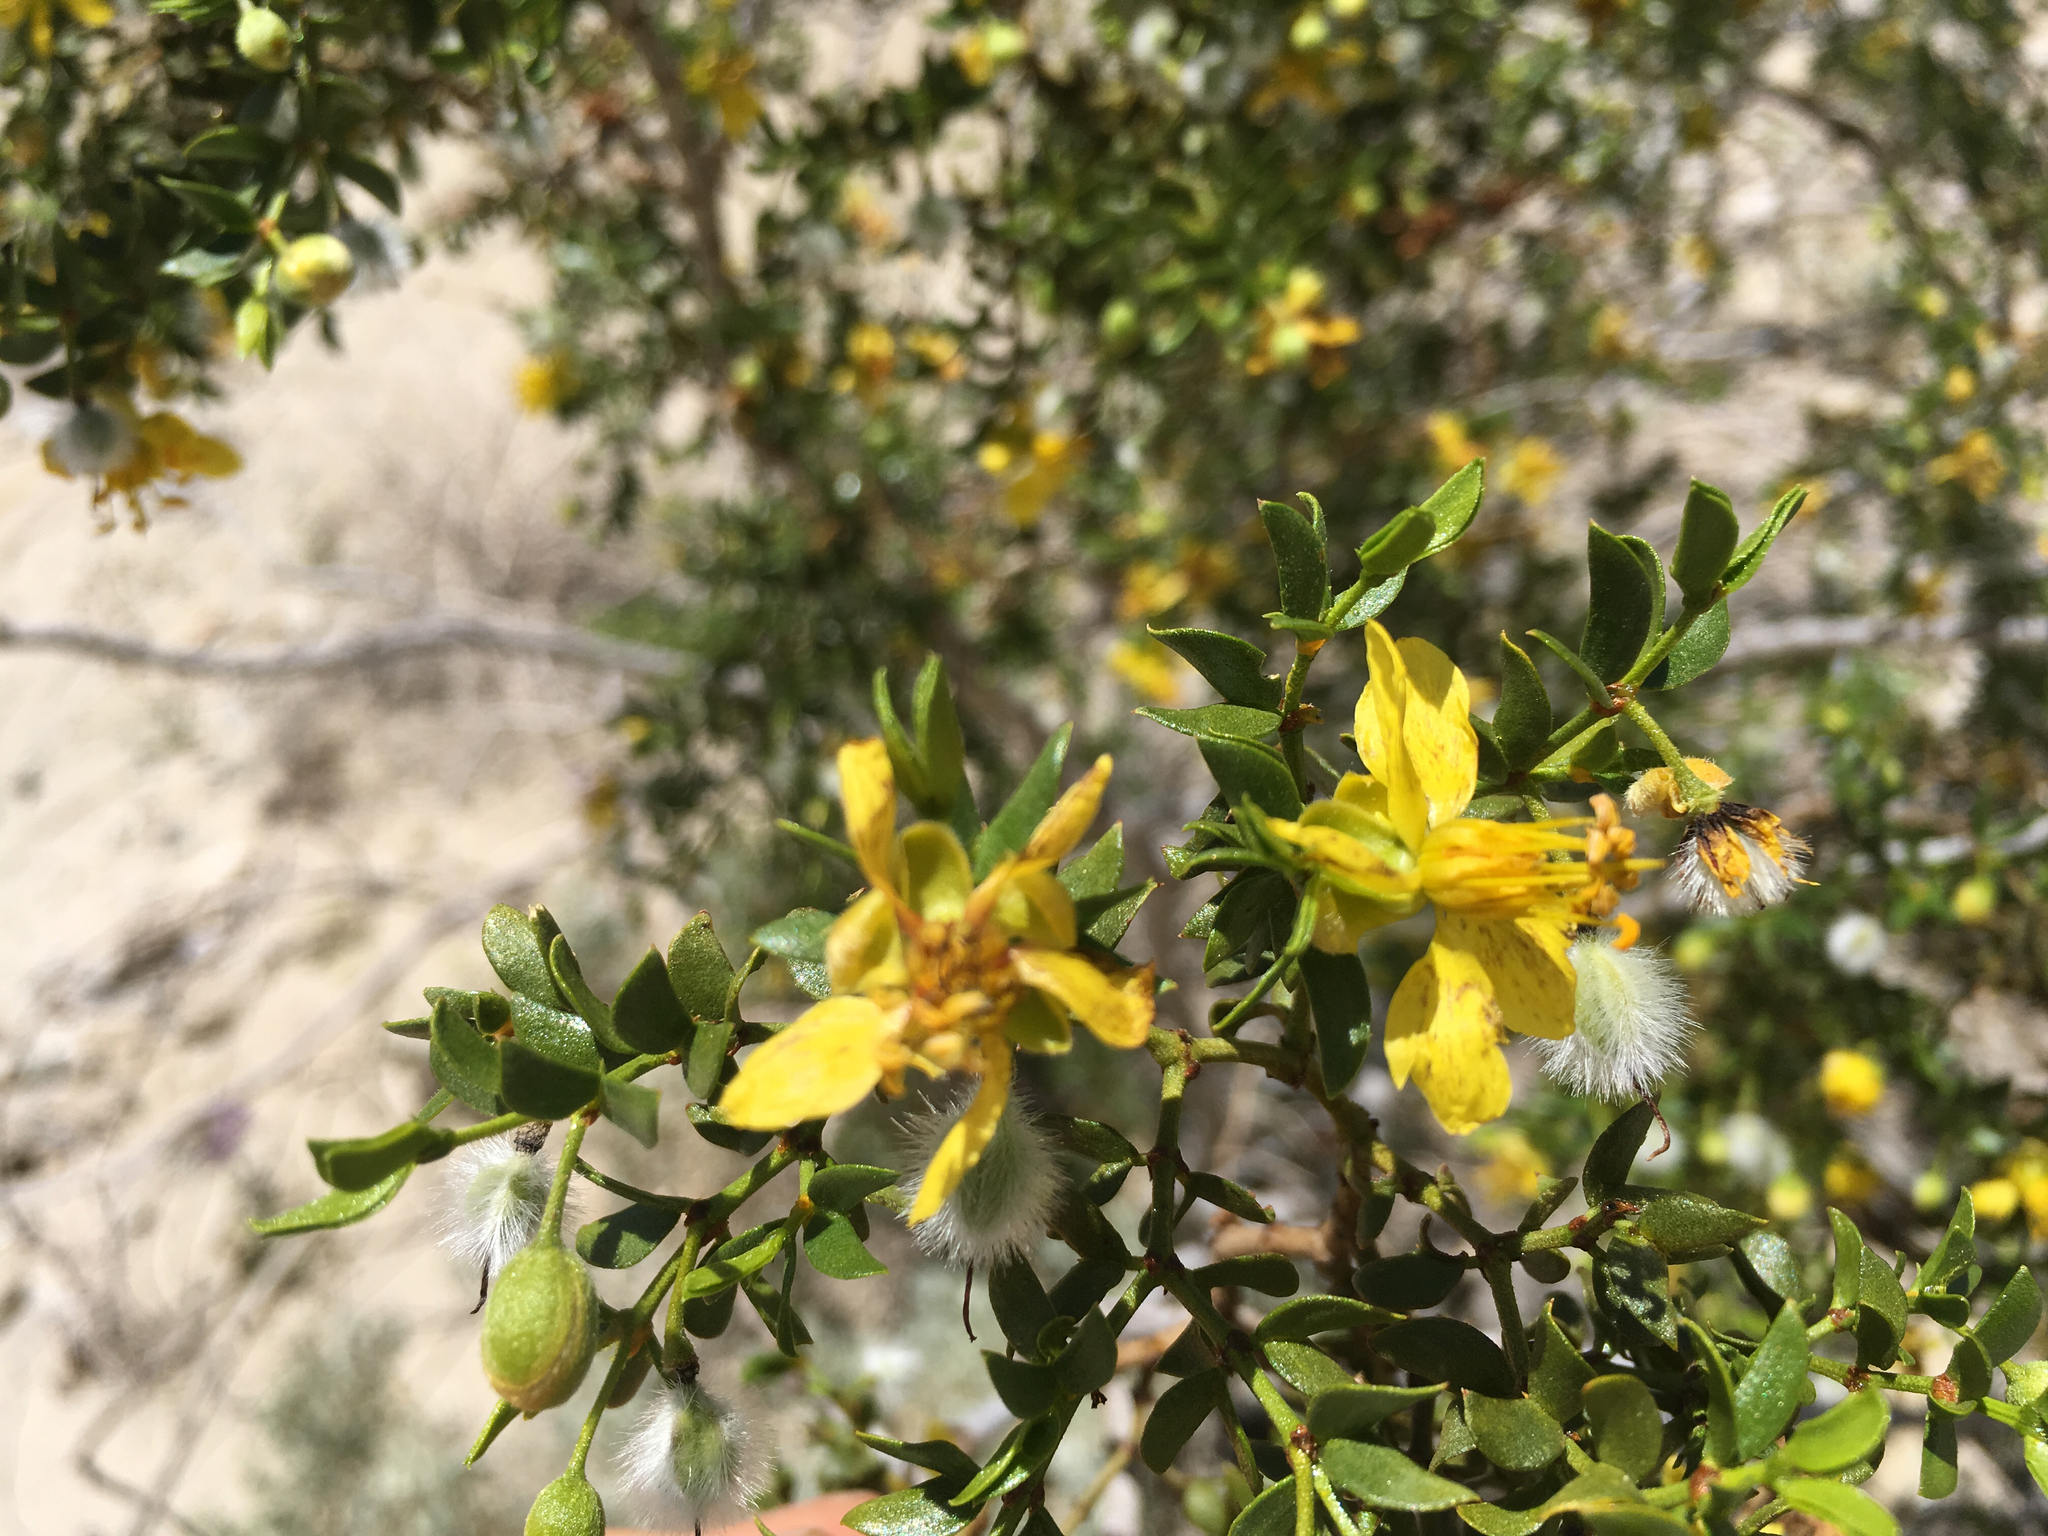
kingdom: Plantae
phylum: Tracheophyta
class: Magnoliopsida
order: Zygophyllales
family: Zygophyllaceae
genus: Larrea
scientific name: Larrea tridentata
